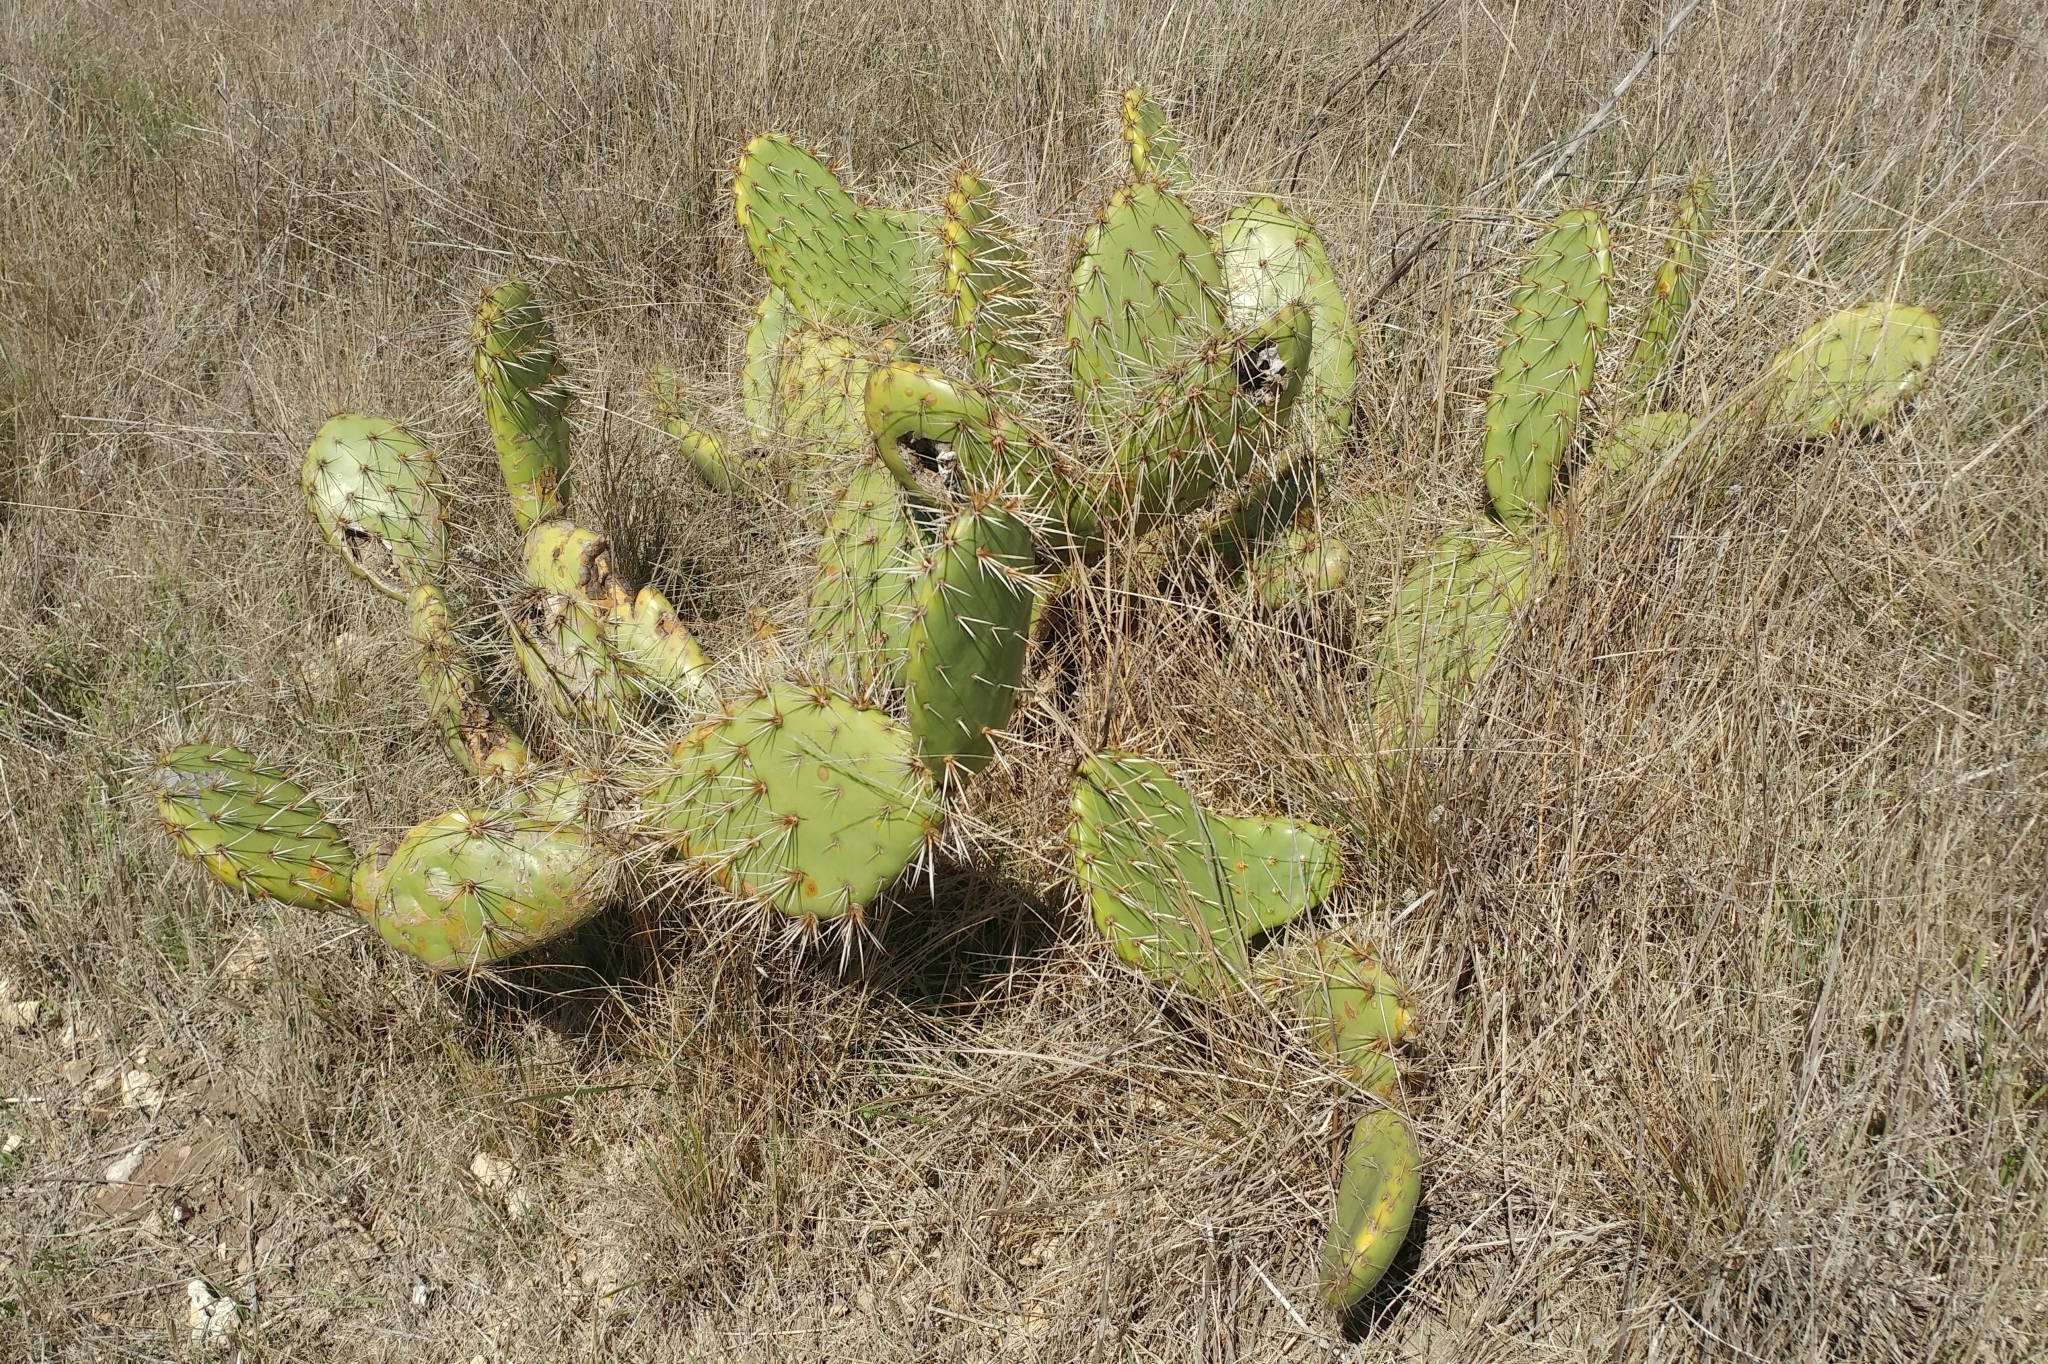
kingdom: Plantae
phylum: Tracheophyta
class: Magnoliopsida
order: Caryophyllales
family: Cactaceae
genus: Opuntia
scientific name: Opuntia littoralis
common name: Coastal prickly-pear
